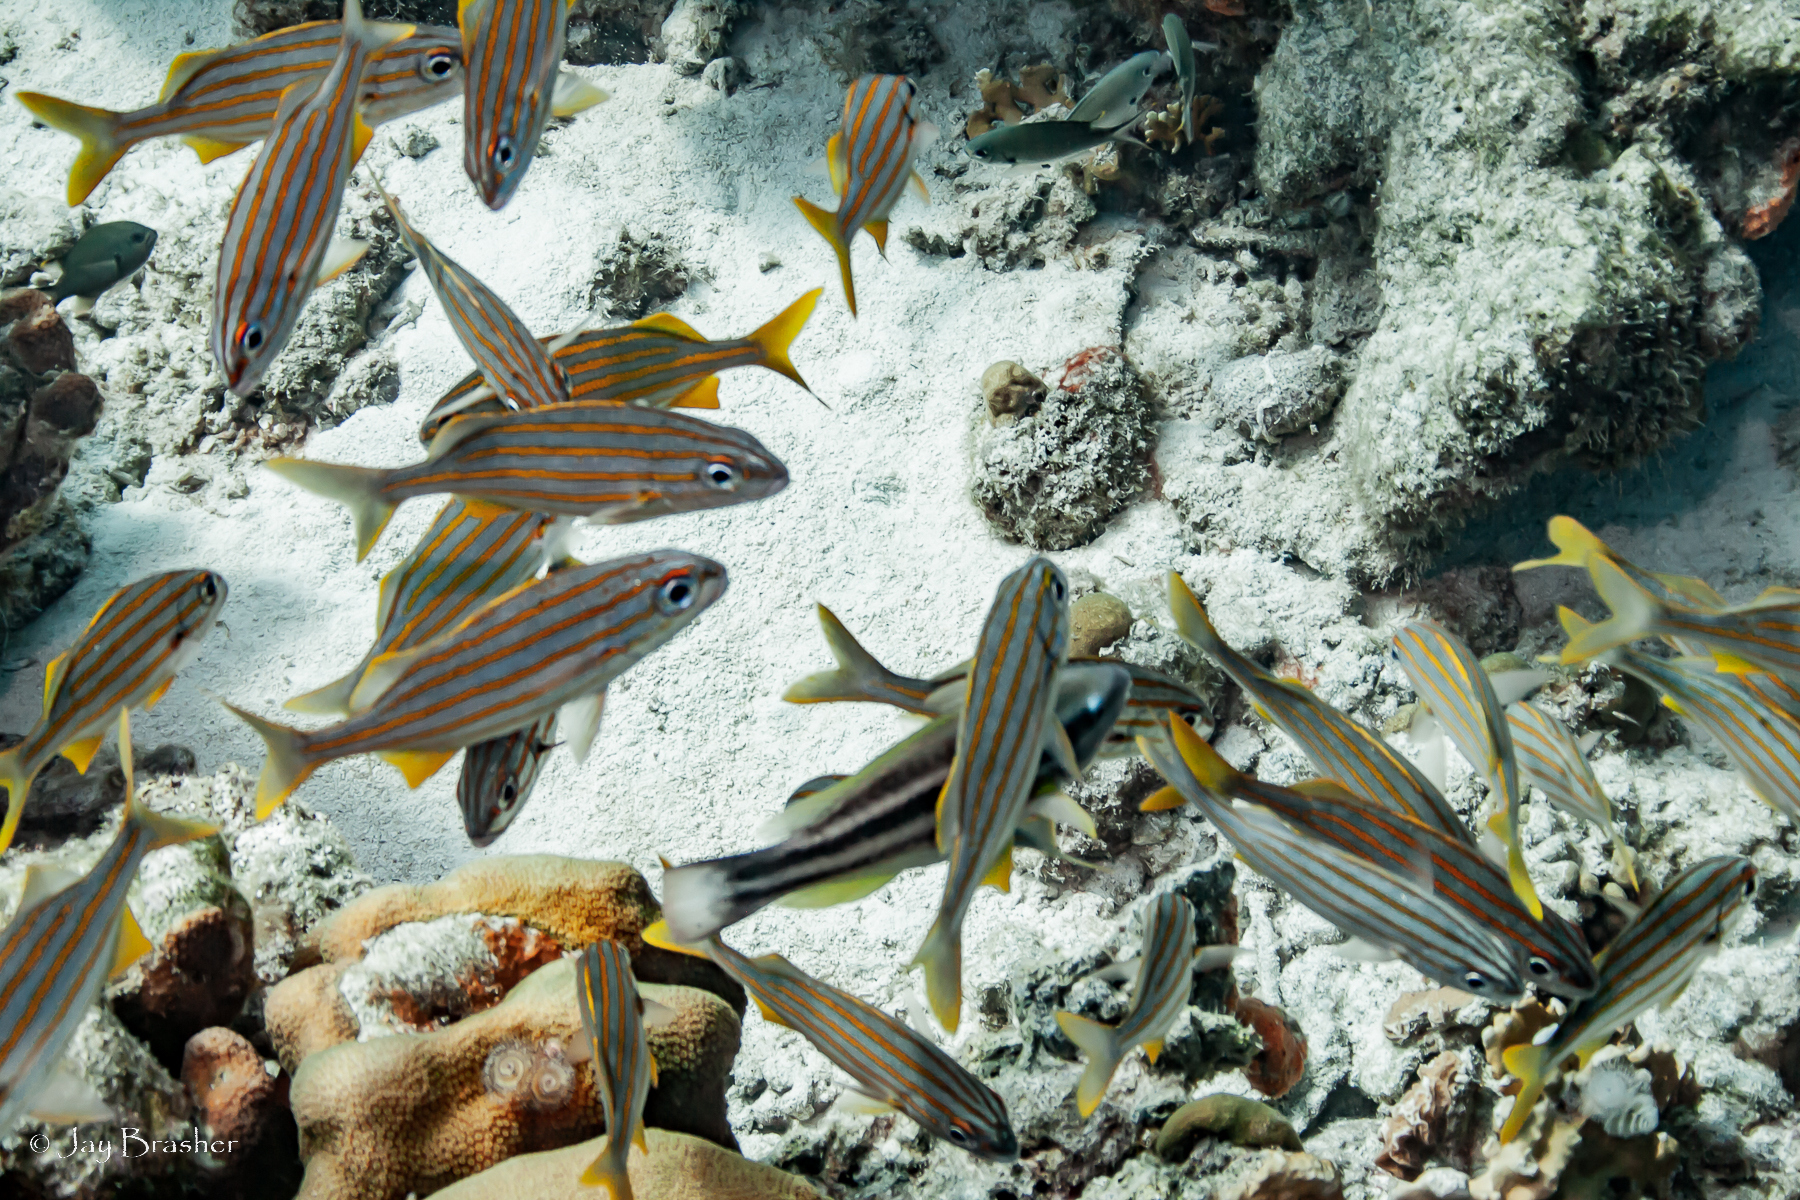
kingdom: Animalia
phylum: Chordata
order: Perciformes
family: Haemulidae
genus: Haemulon
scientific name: Haemulon chrysargyreum
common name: Smallmouth grunt
